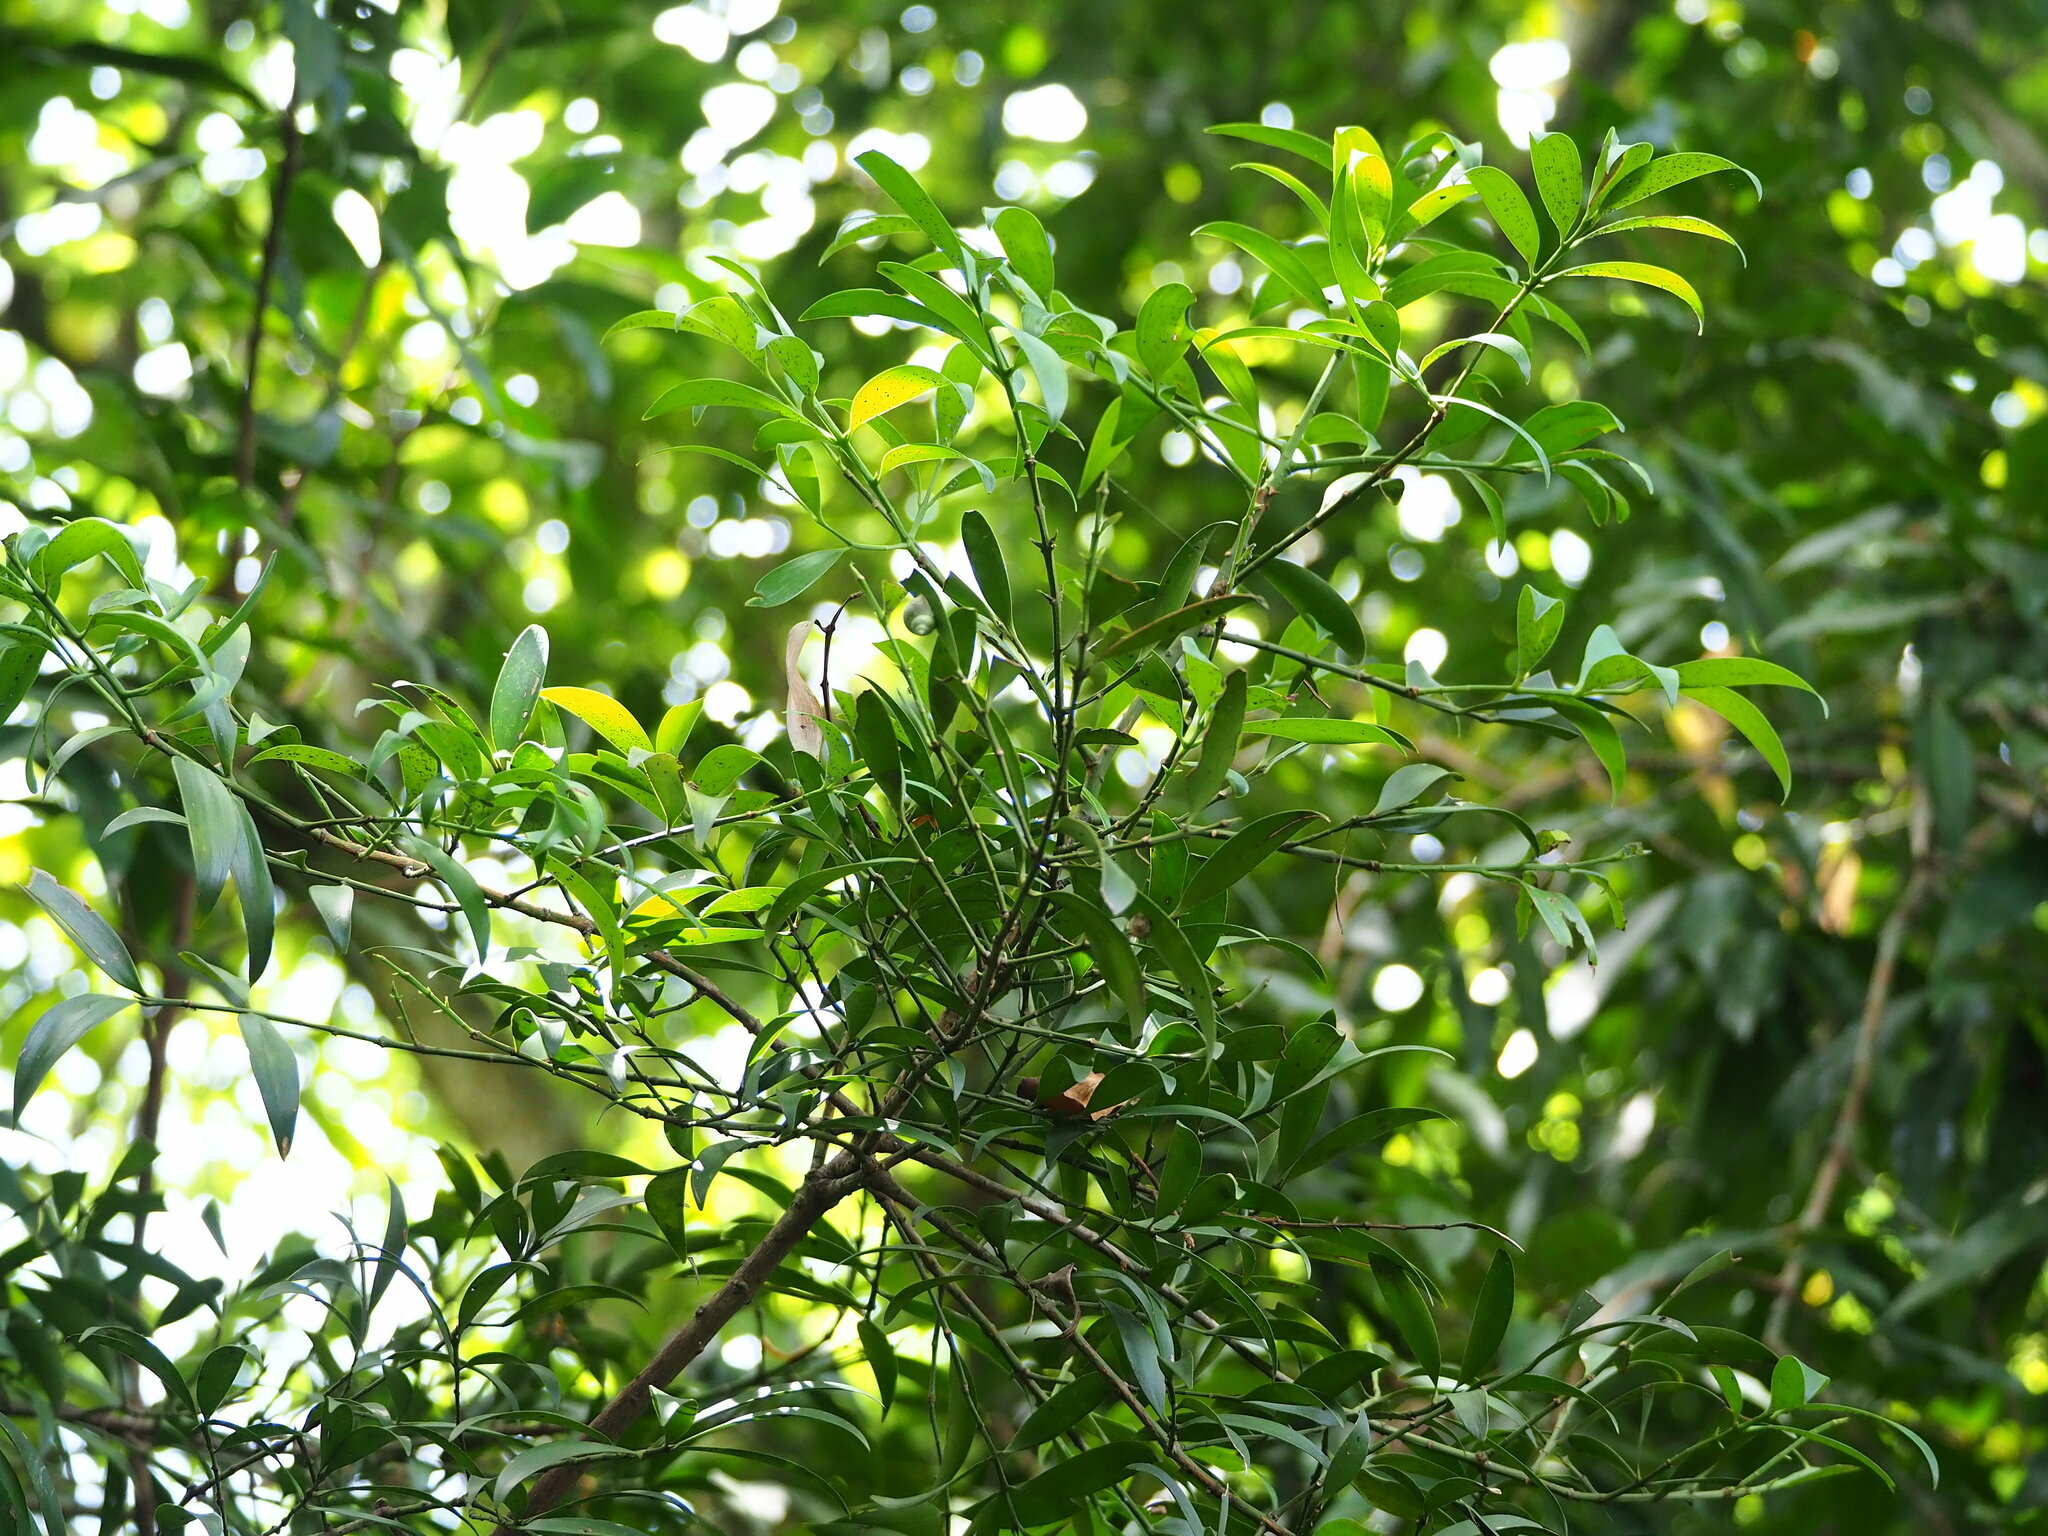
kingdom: Plantae
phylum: Tracheophyta
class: Pinopsida
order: Pinales
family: Podocarpaceae
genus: Nageia
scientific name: Nageia nagi
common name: Kaphal
